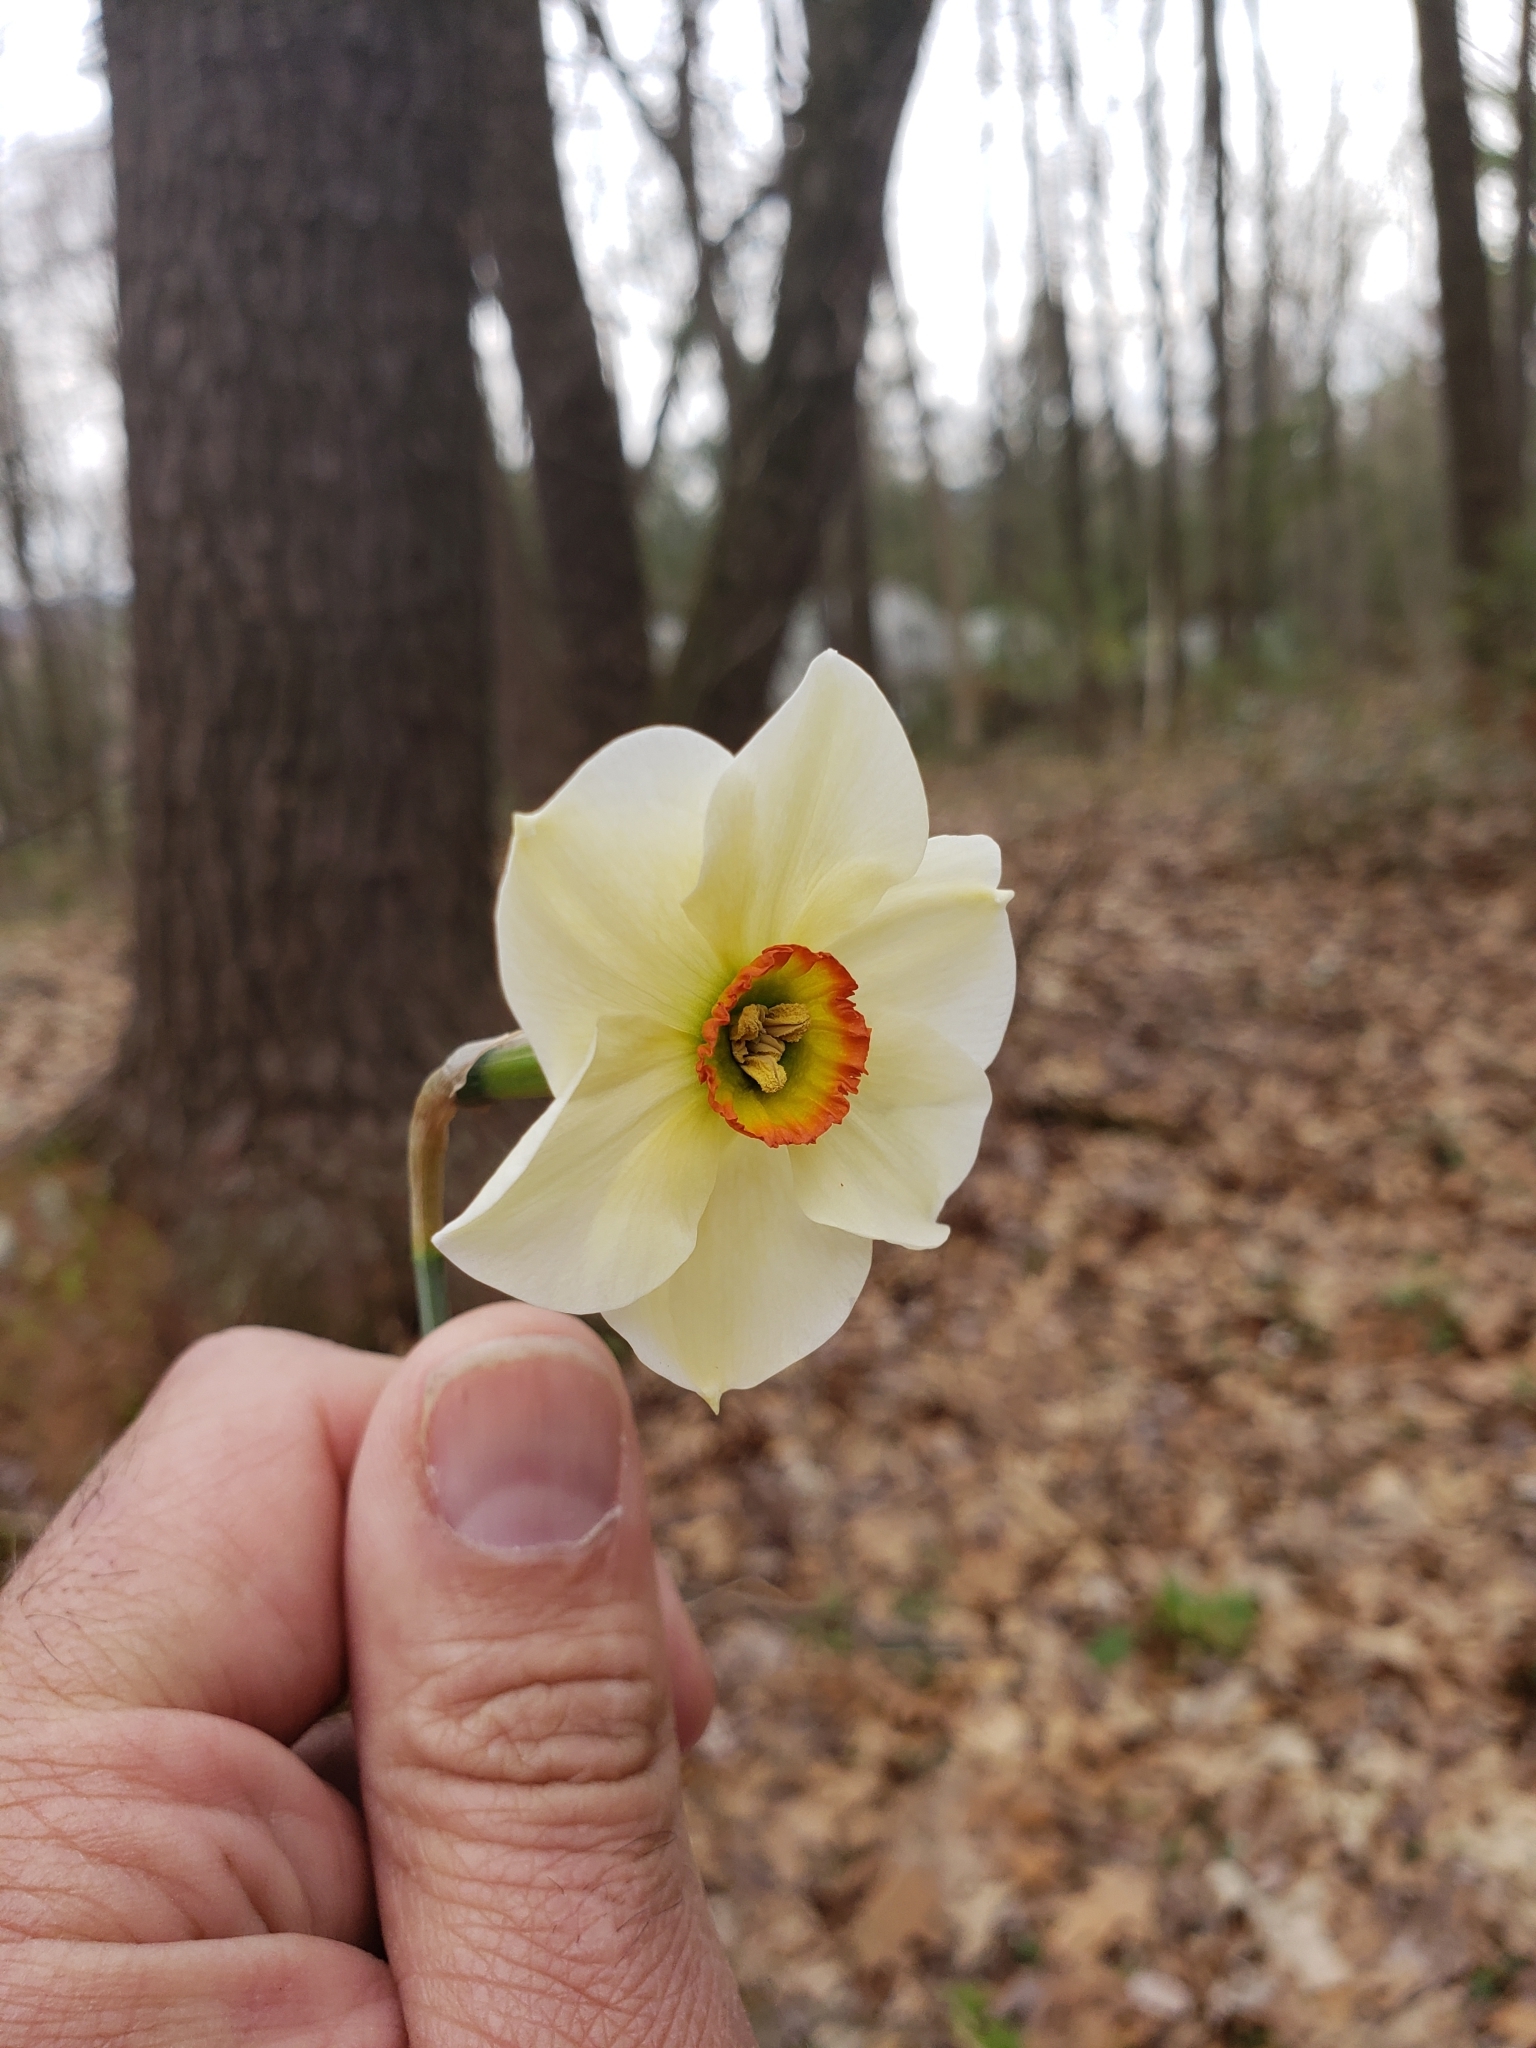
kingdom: Plantae
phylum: Tracheophyta
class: Liliopsida
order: Asparagales
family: Amaryllidaceae
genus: Narcissus
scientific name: Narcissus poeticus
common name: Pheasant's-eye daffodil
